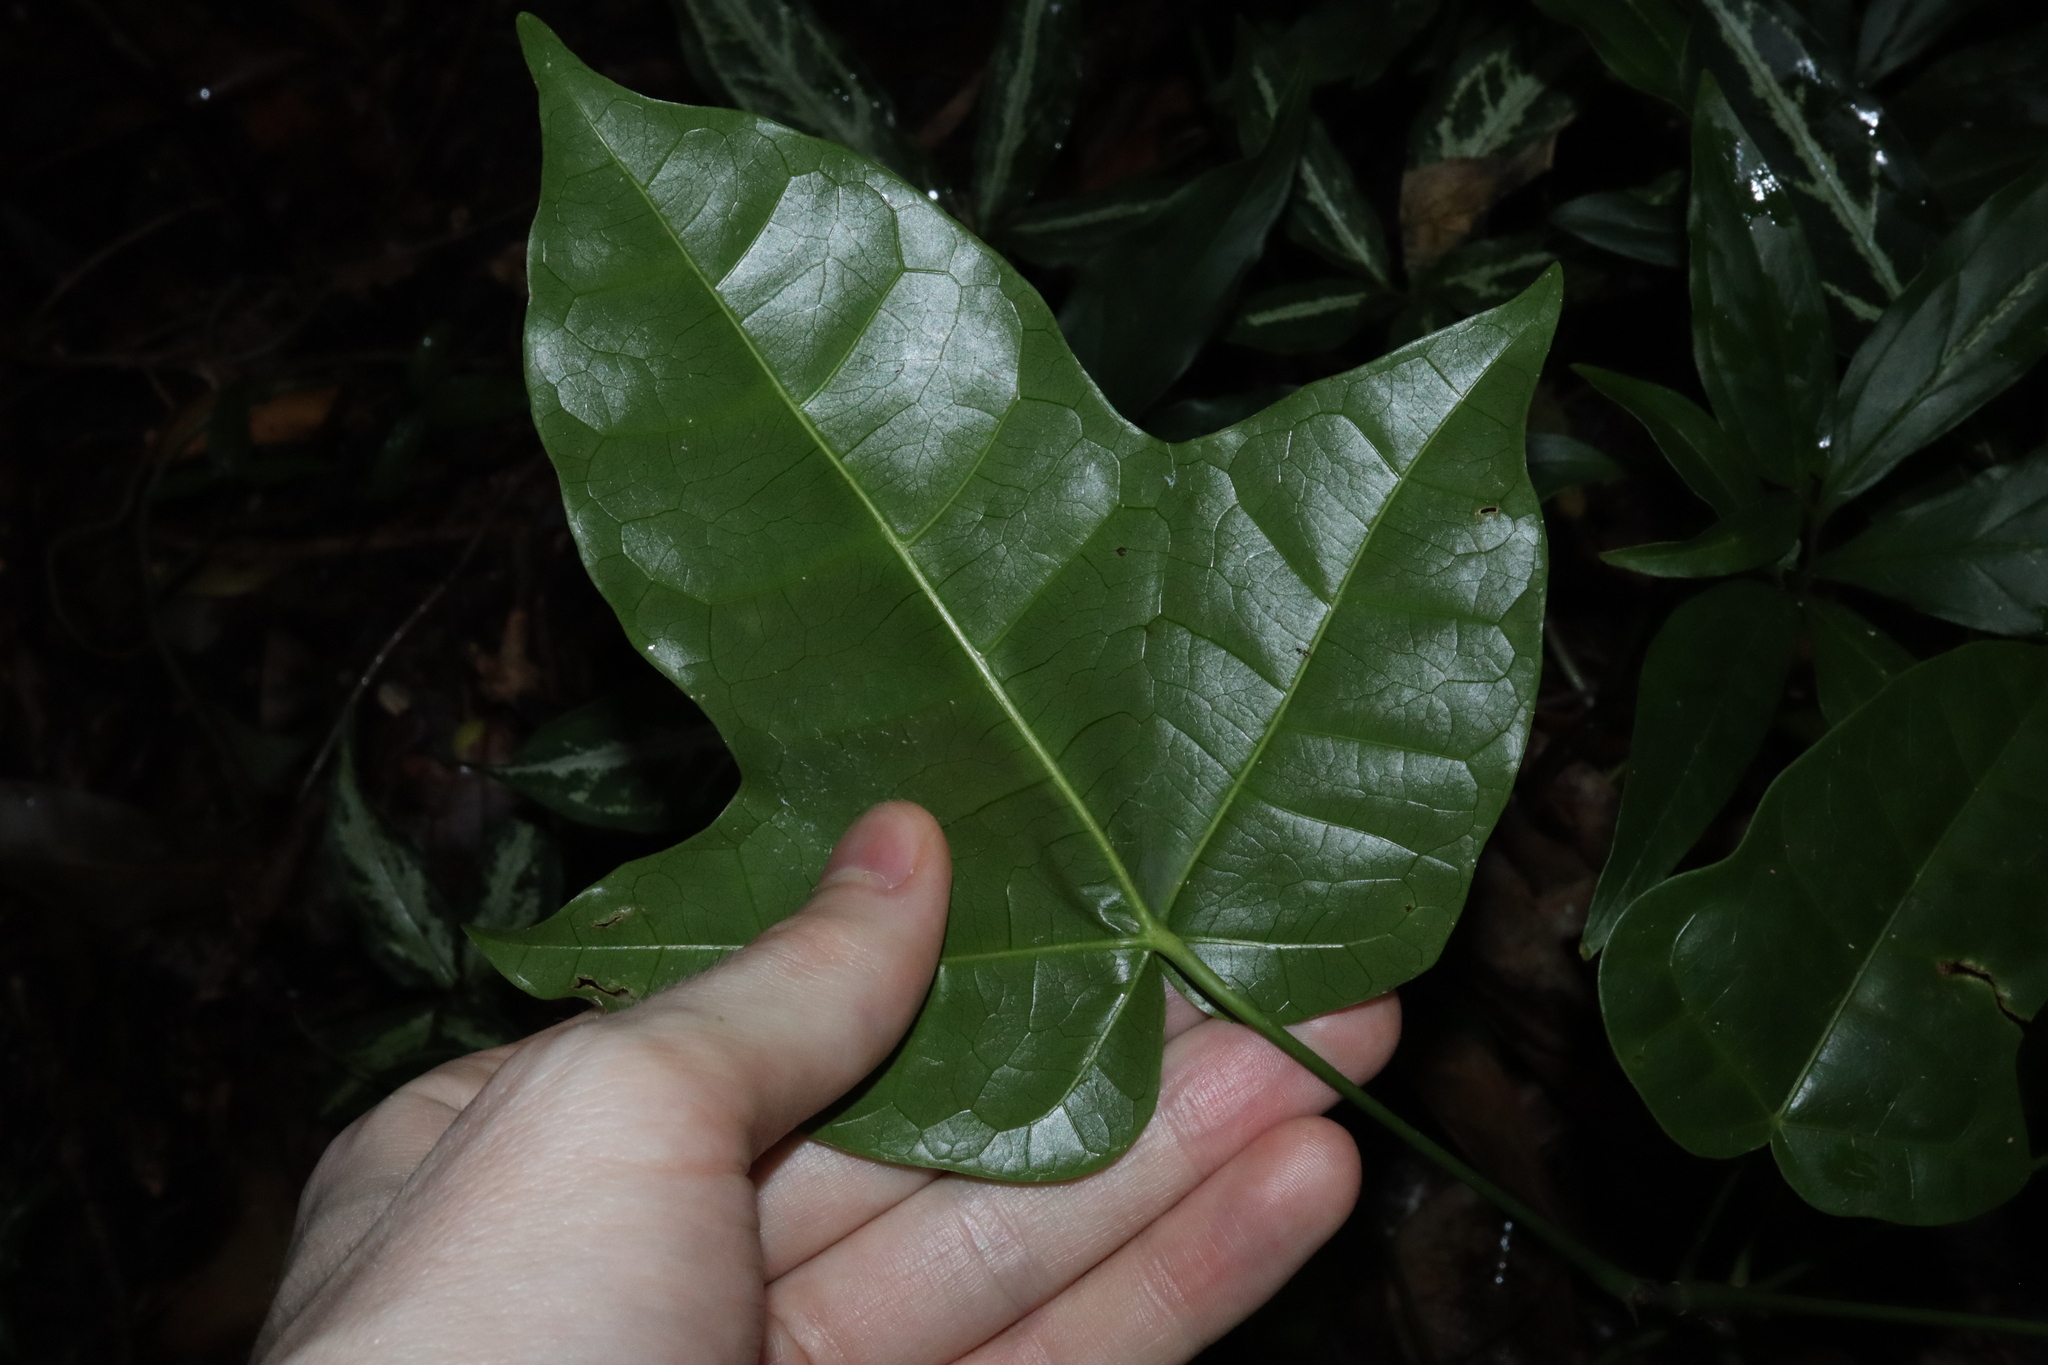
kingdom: Plantae
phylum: Tracheophyta
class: Magnoliopsida
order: Malvales
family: Malvaceae
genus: Brachychiton
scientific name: Brachychiton acerifolius
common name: Illawarra flame tree
